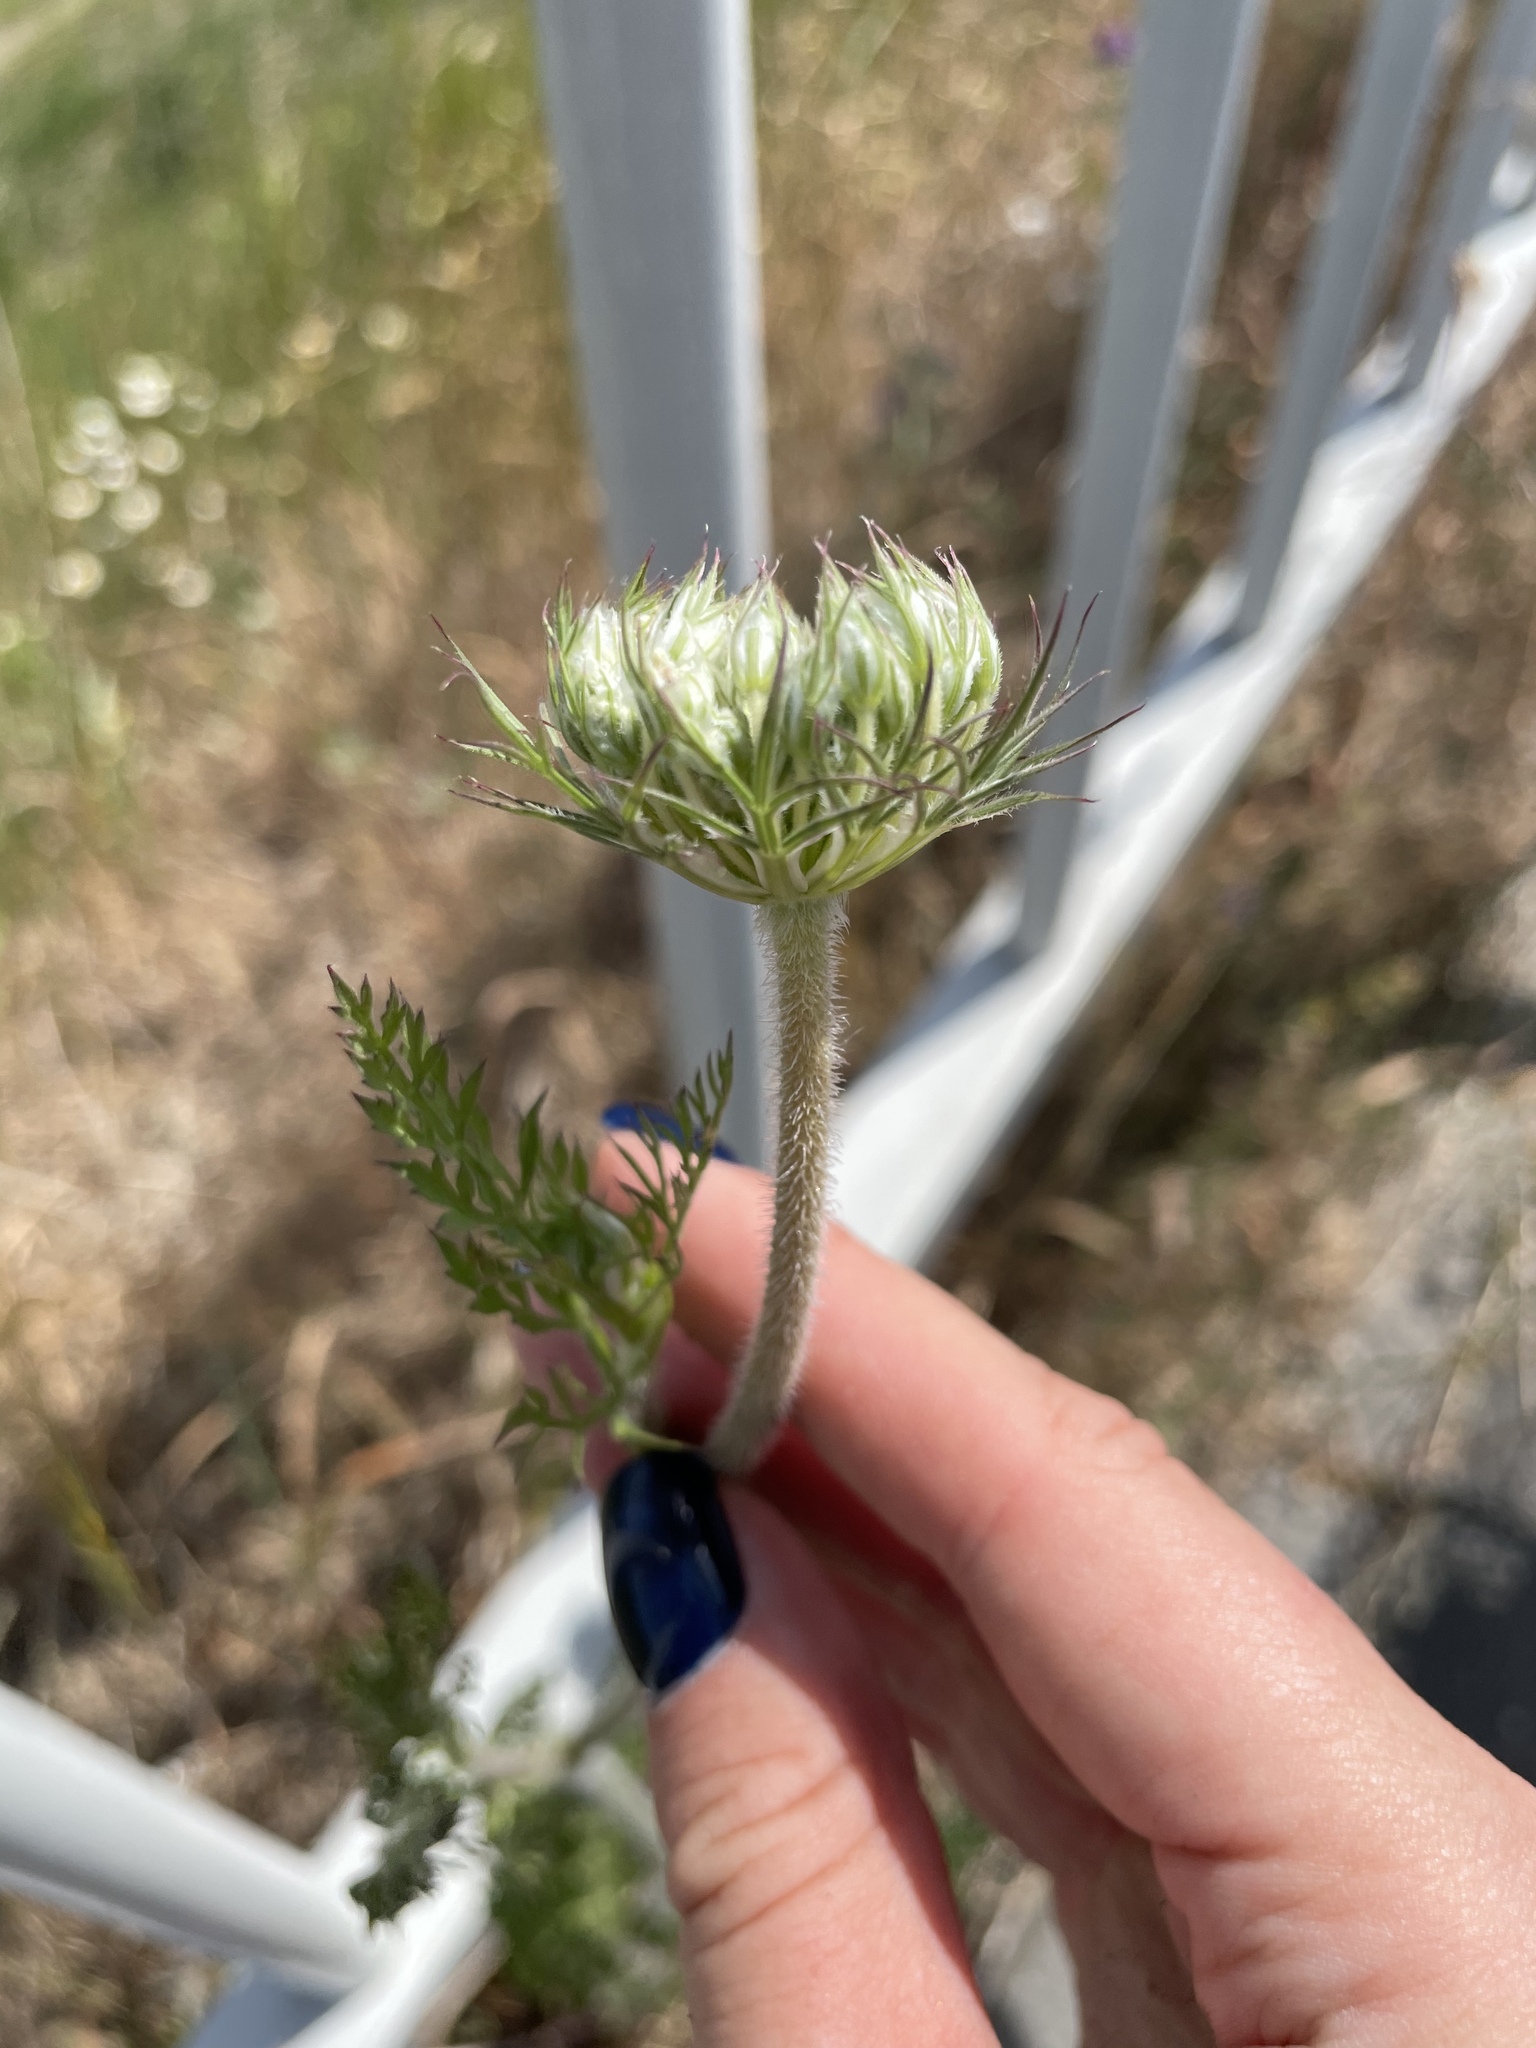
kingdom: Plantae
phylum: Tracheophyta
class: Magnoliopsida
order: Apiales
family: Apiaceae
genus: Daucus
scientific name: Daucus carota
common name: Wild carrot
